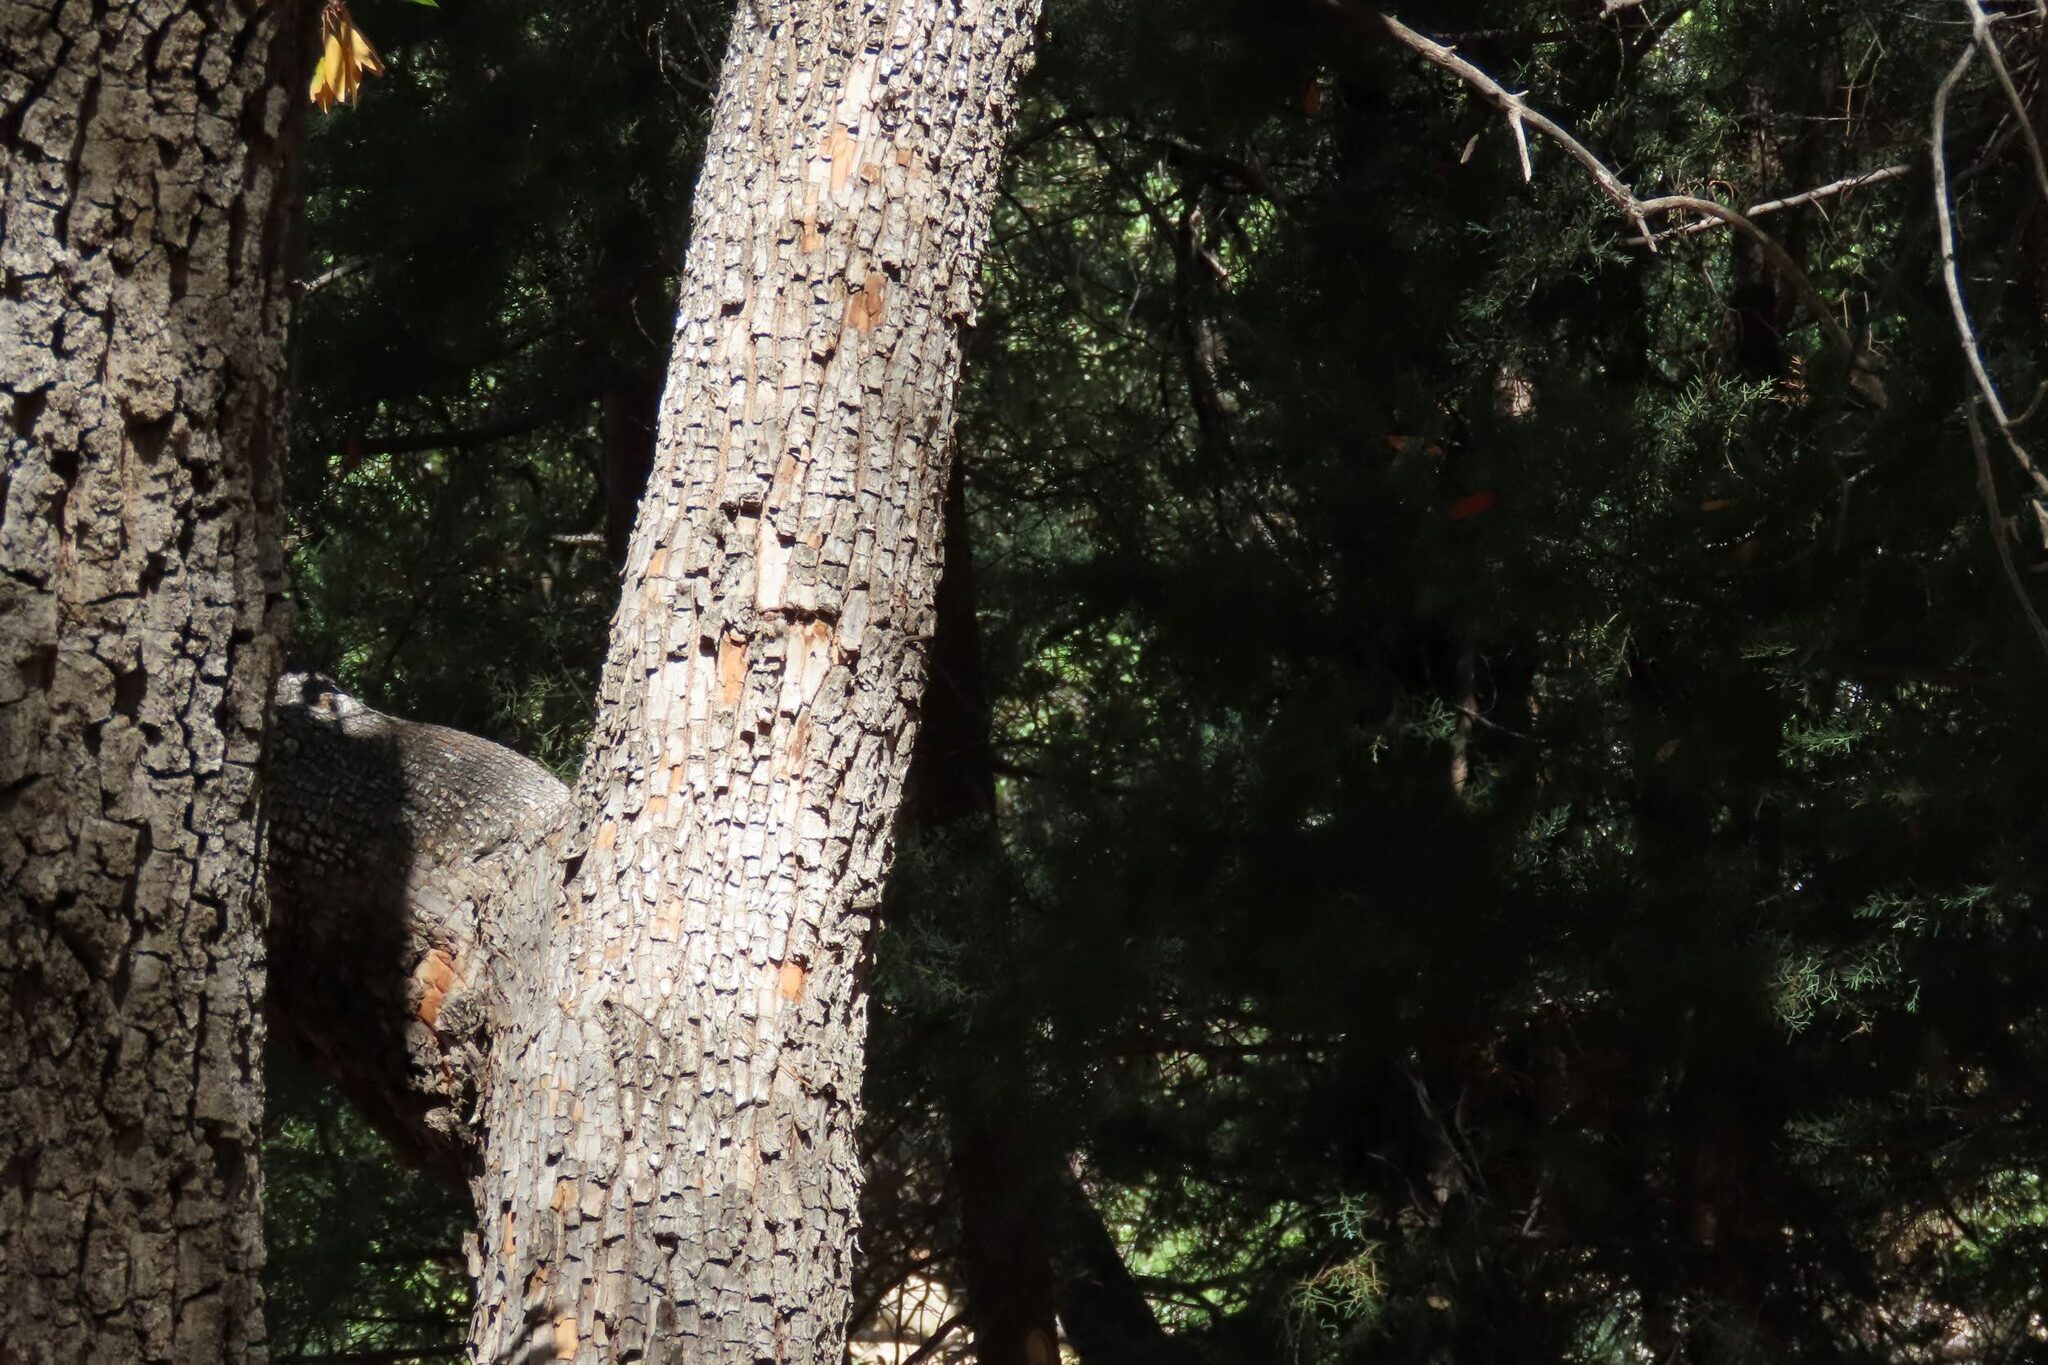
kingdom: Plantae
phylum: Tracheophyta
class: Magnoliopsida
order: Ericales
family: Ericaceae
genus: Arbutus
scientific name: Arbutus arizonica
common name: Arizona madrone
